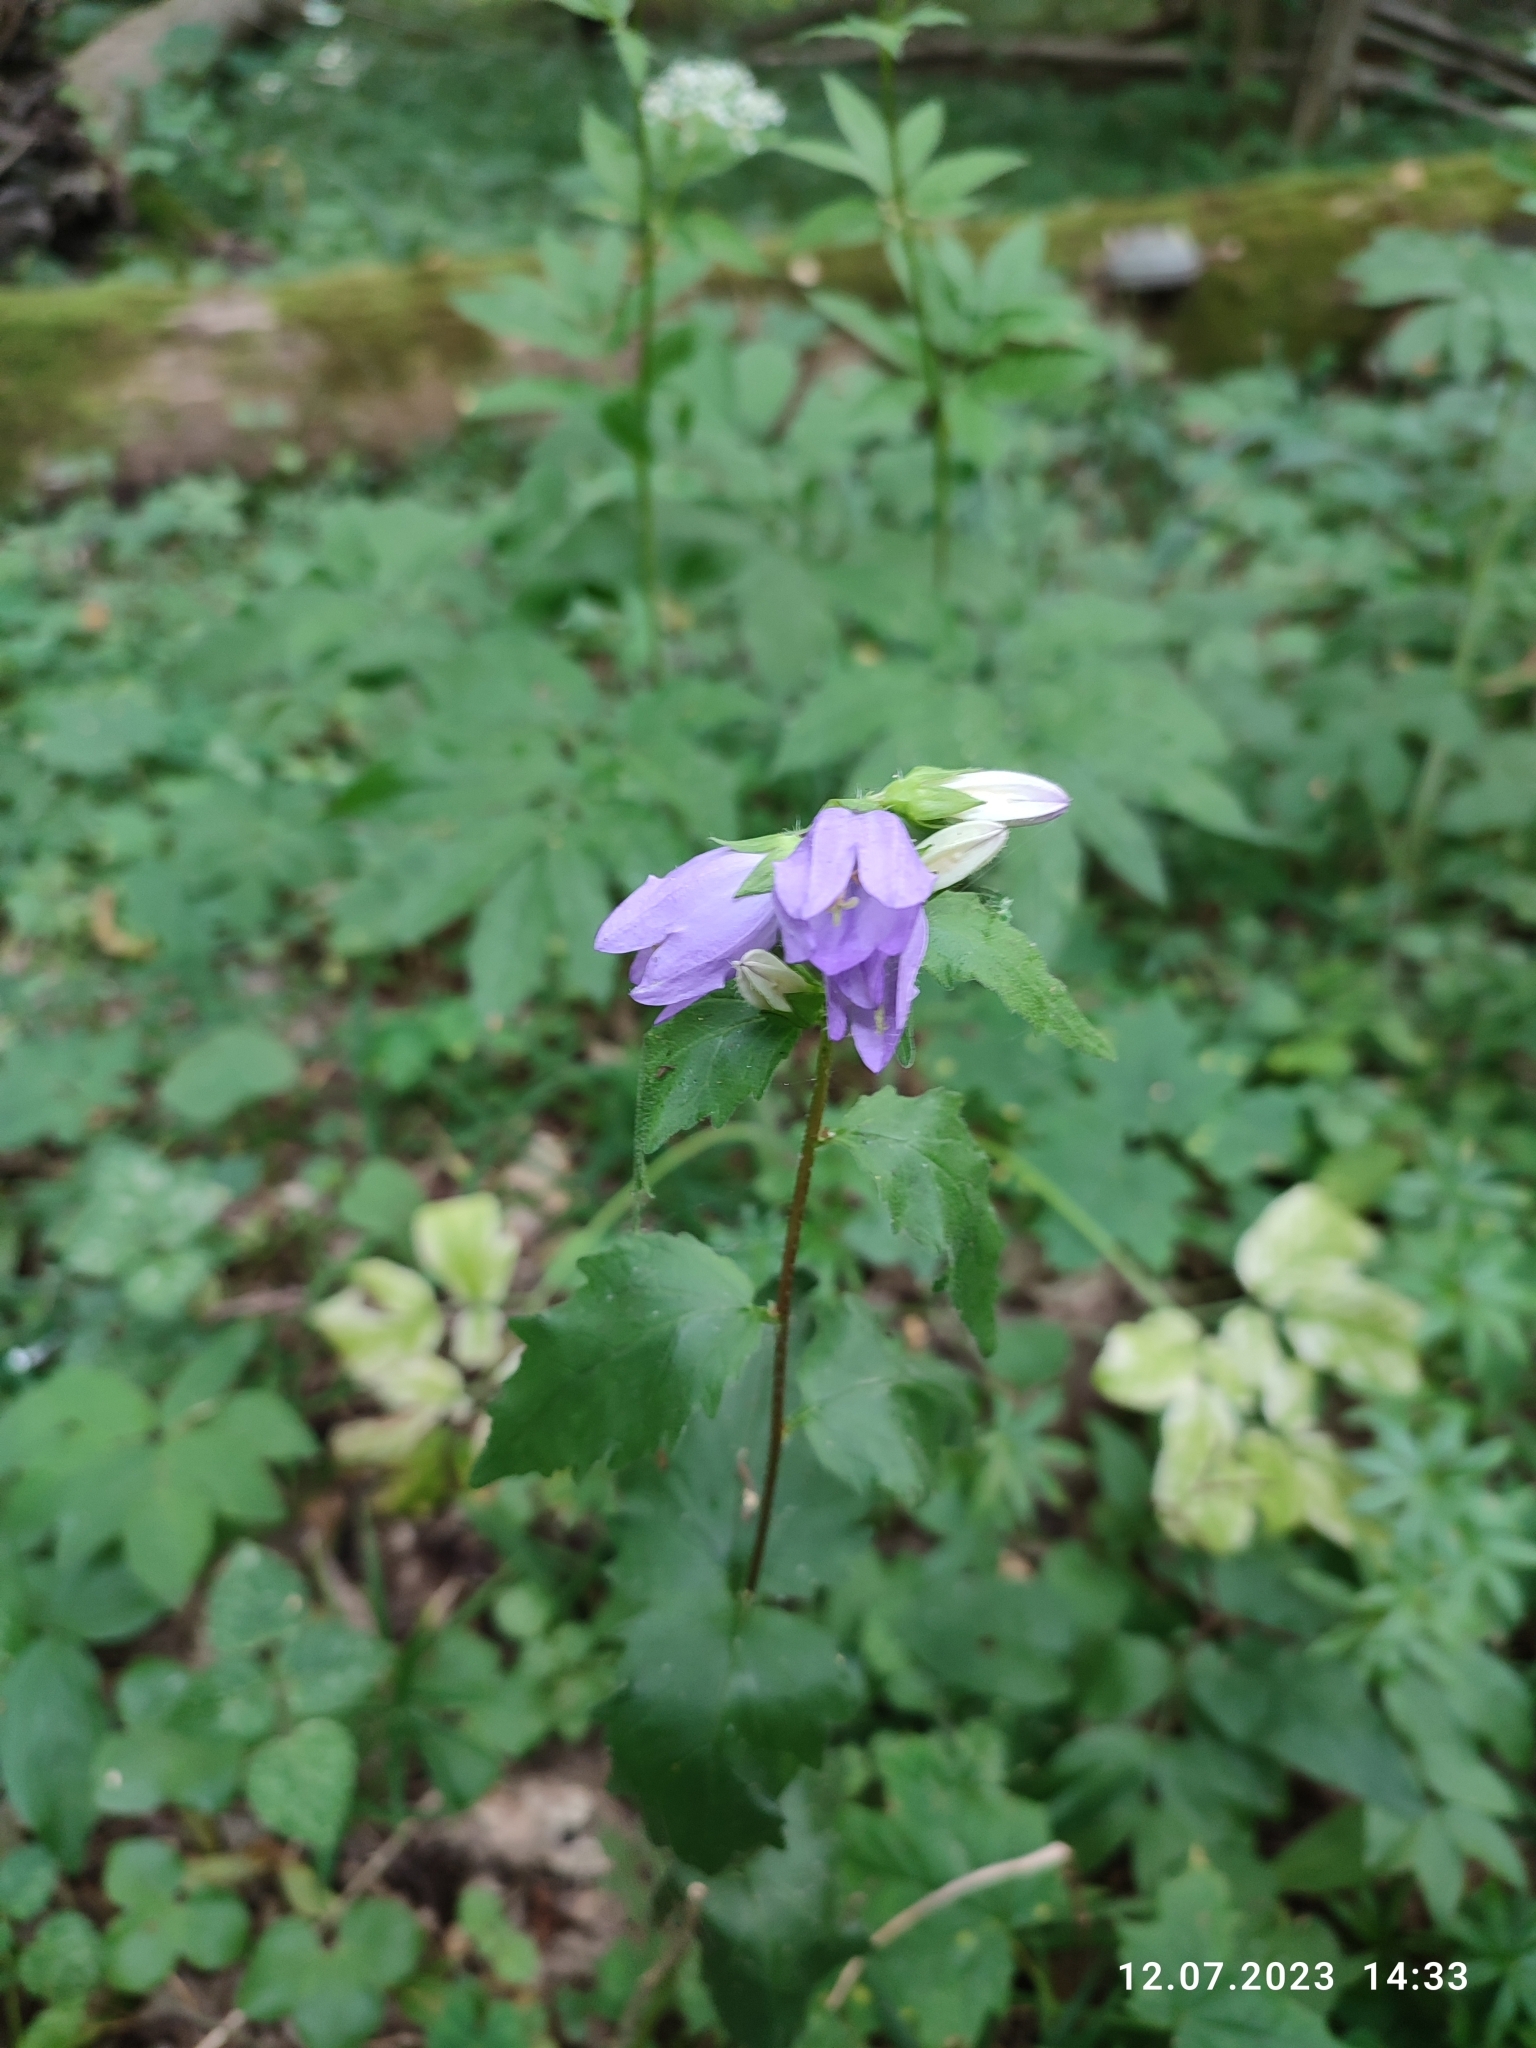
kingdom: Plantae
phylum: Tracheophyta
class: Magnoliopsida
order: Asterales
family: Campanulaceae
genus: Campanula
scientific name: Campanula trachelium
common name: Nettle-leaved bellflower
